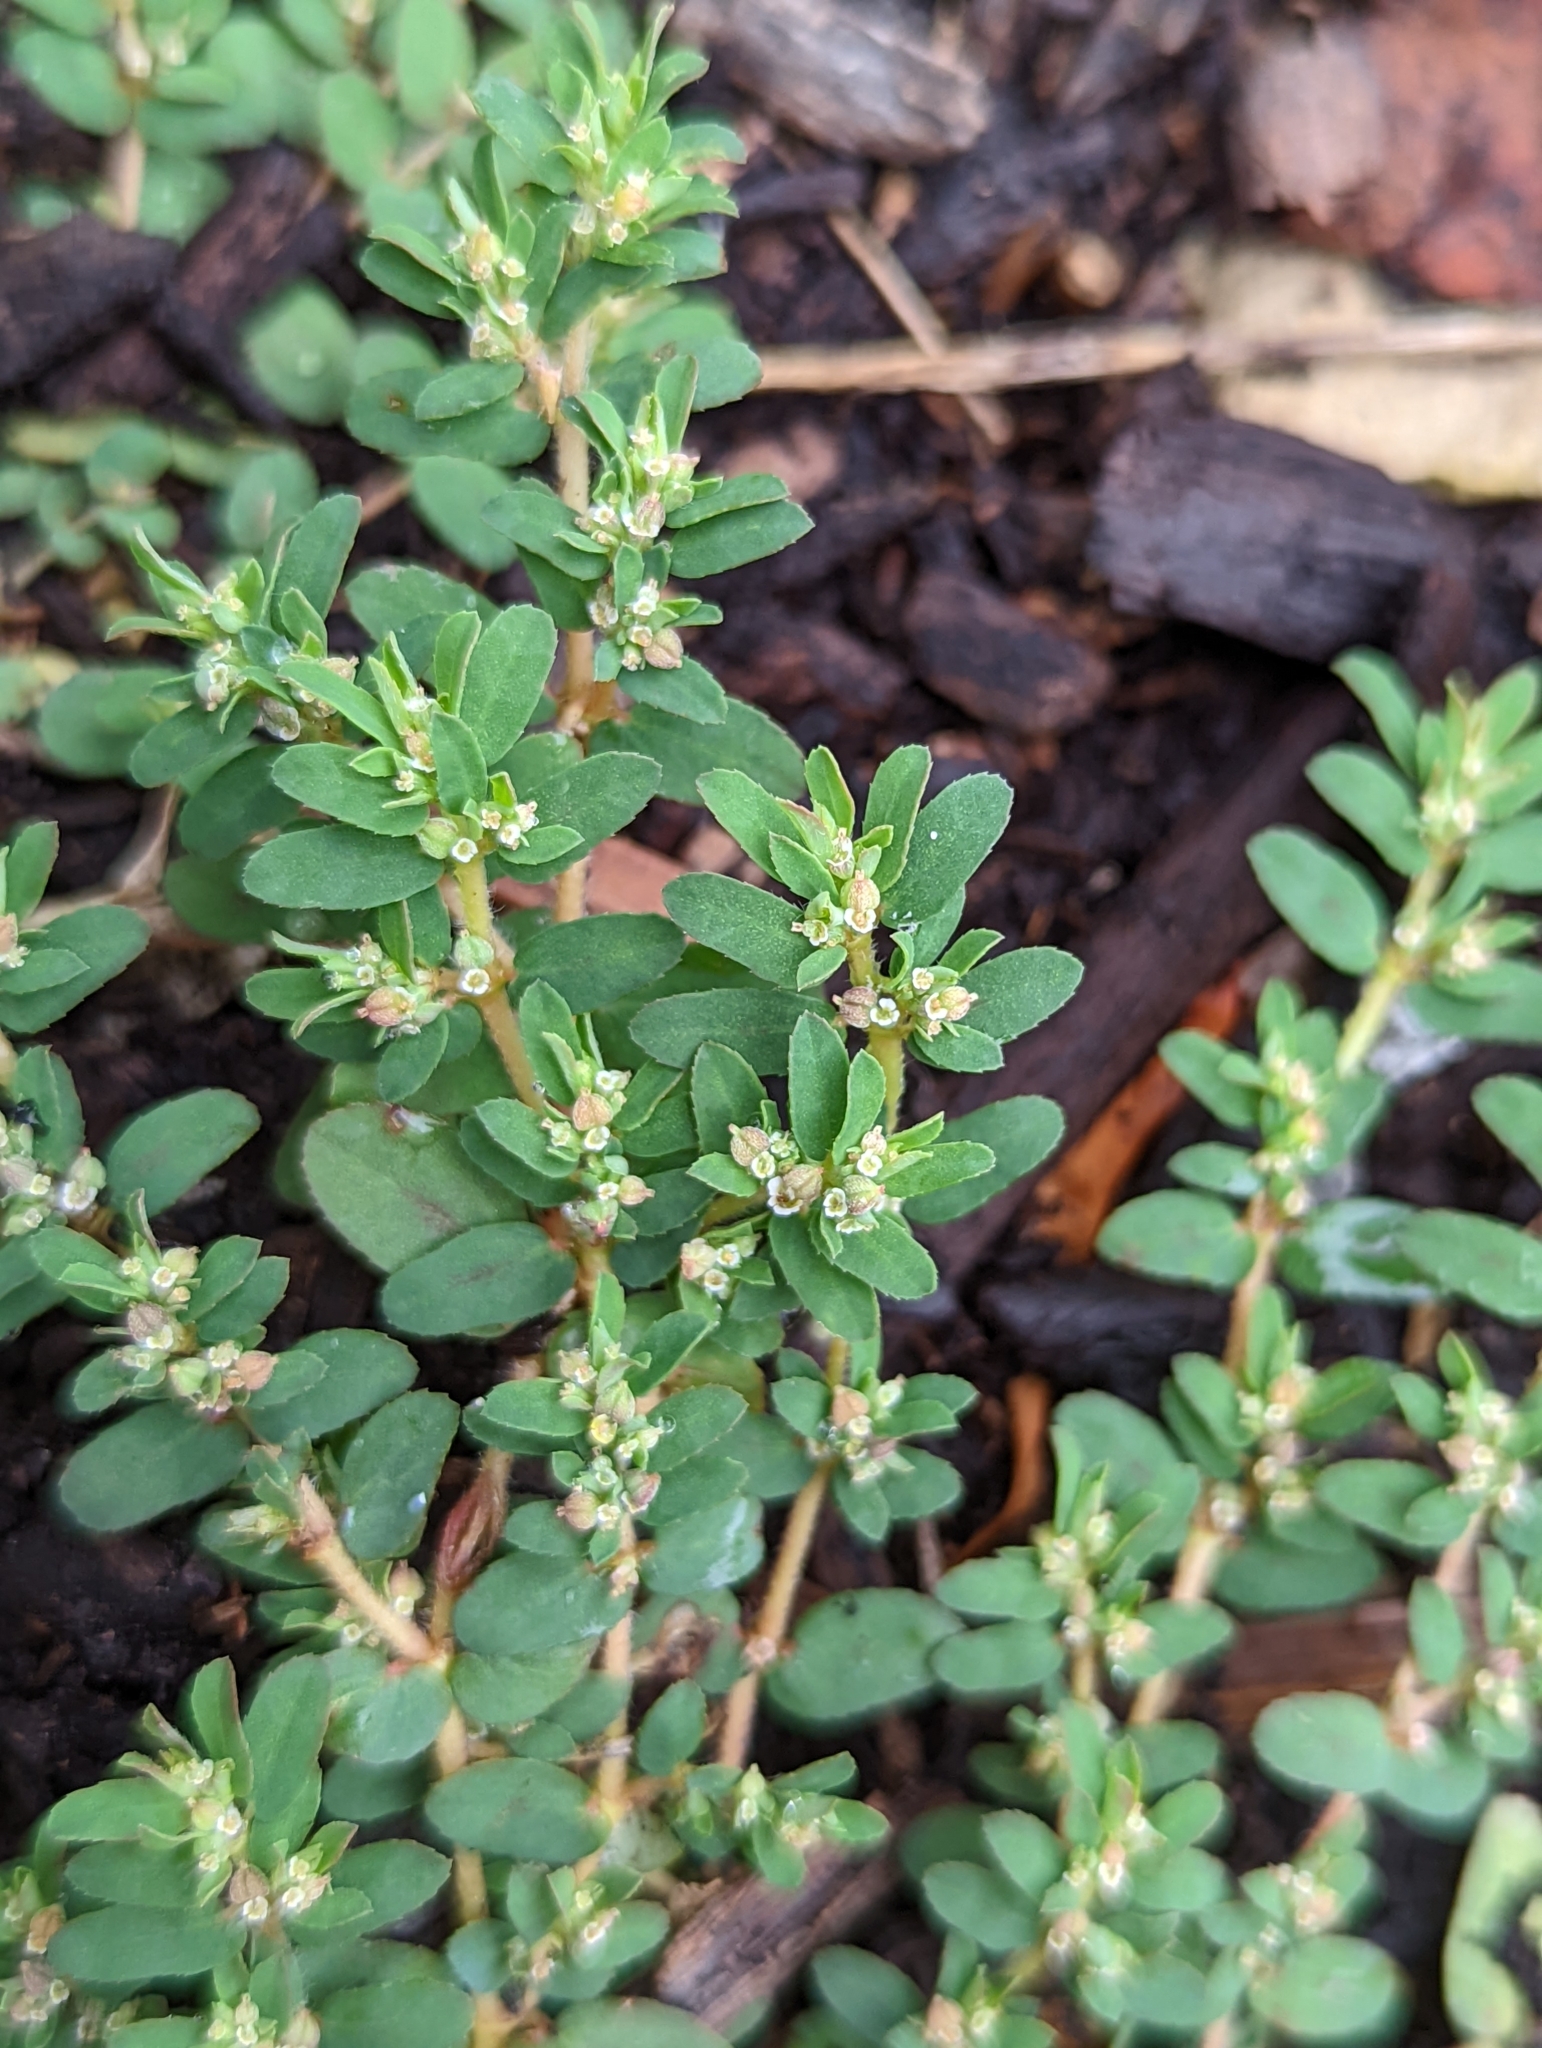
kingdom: Plantae
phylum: Tracheophyta
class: Magnoliopsida
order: Malpighiales
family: Euphorbiaceae
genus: Euphorbia
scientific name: Euphorbia maculata
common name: Spotted spurge
